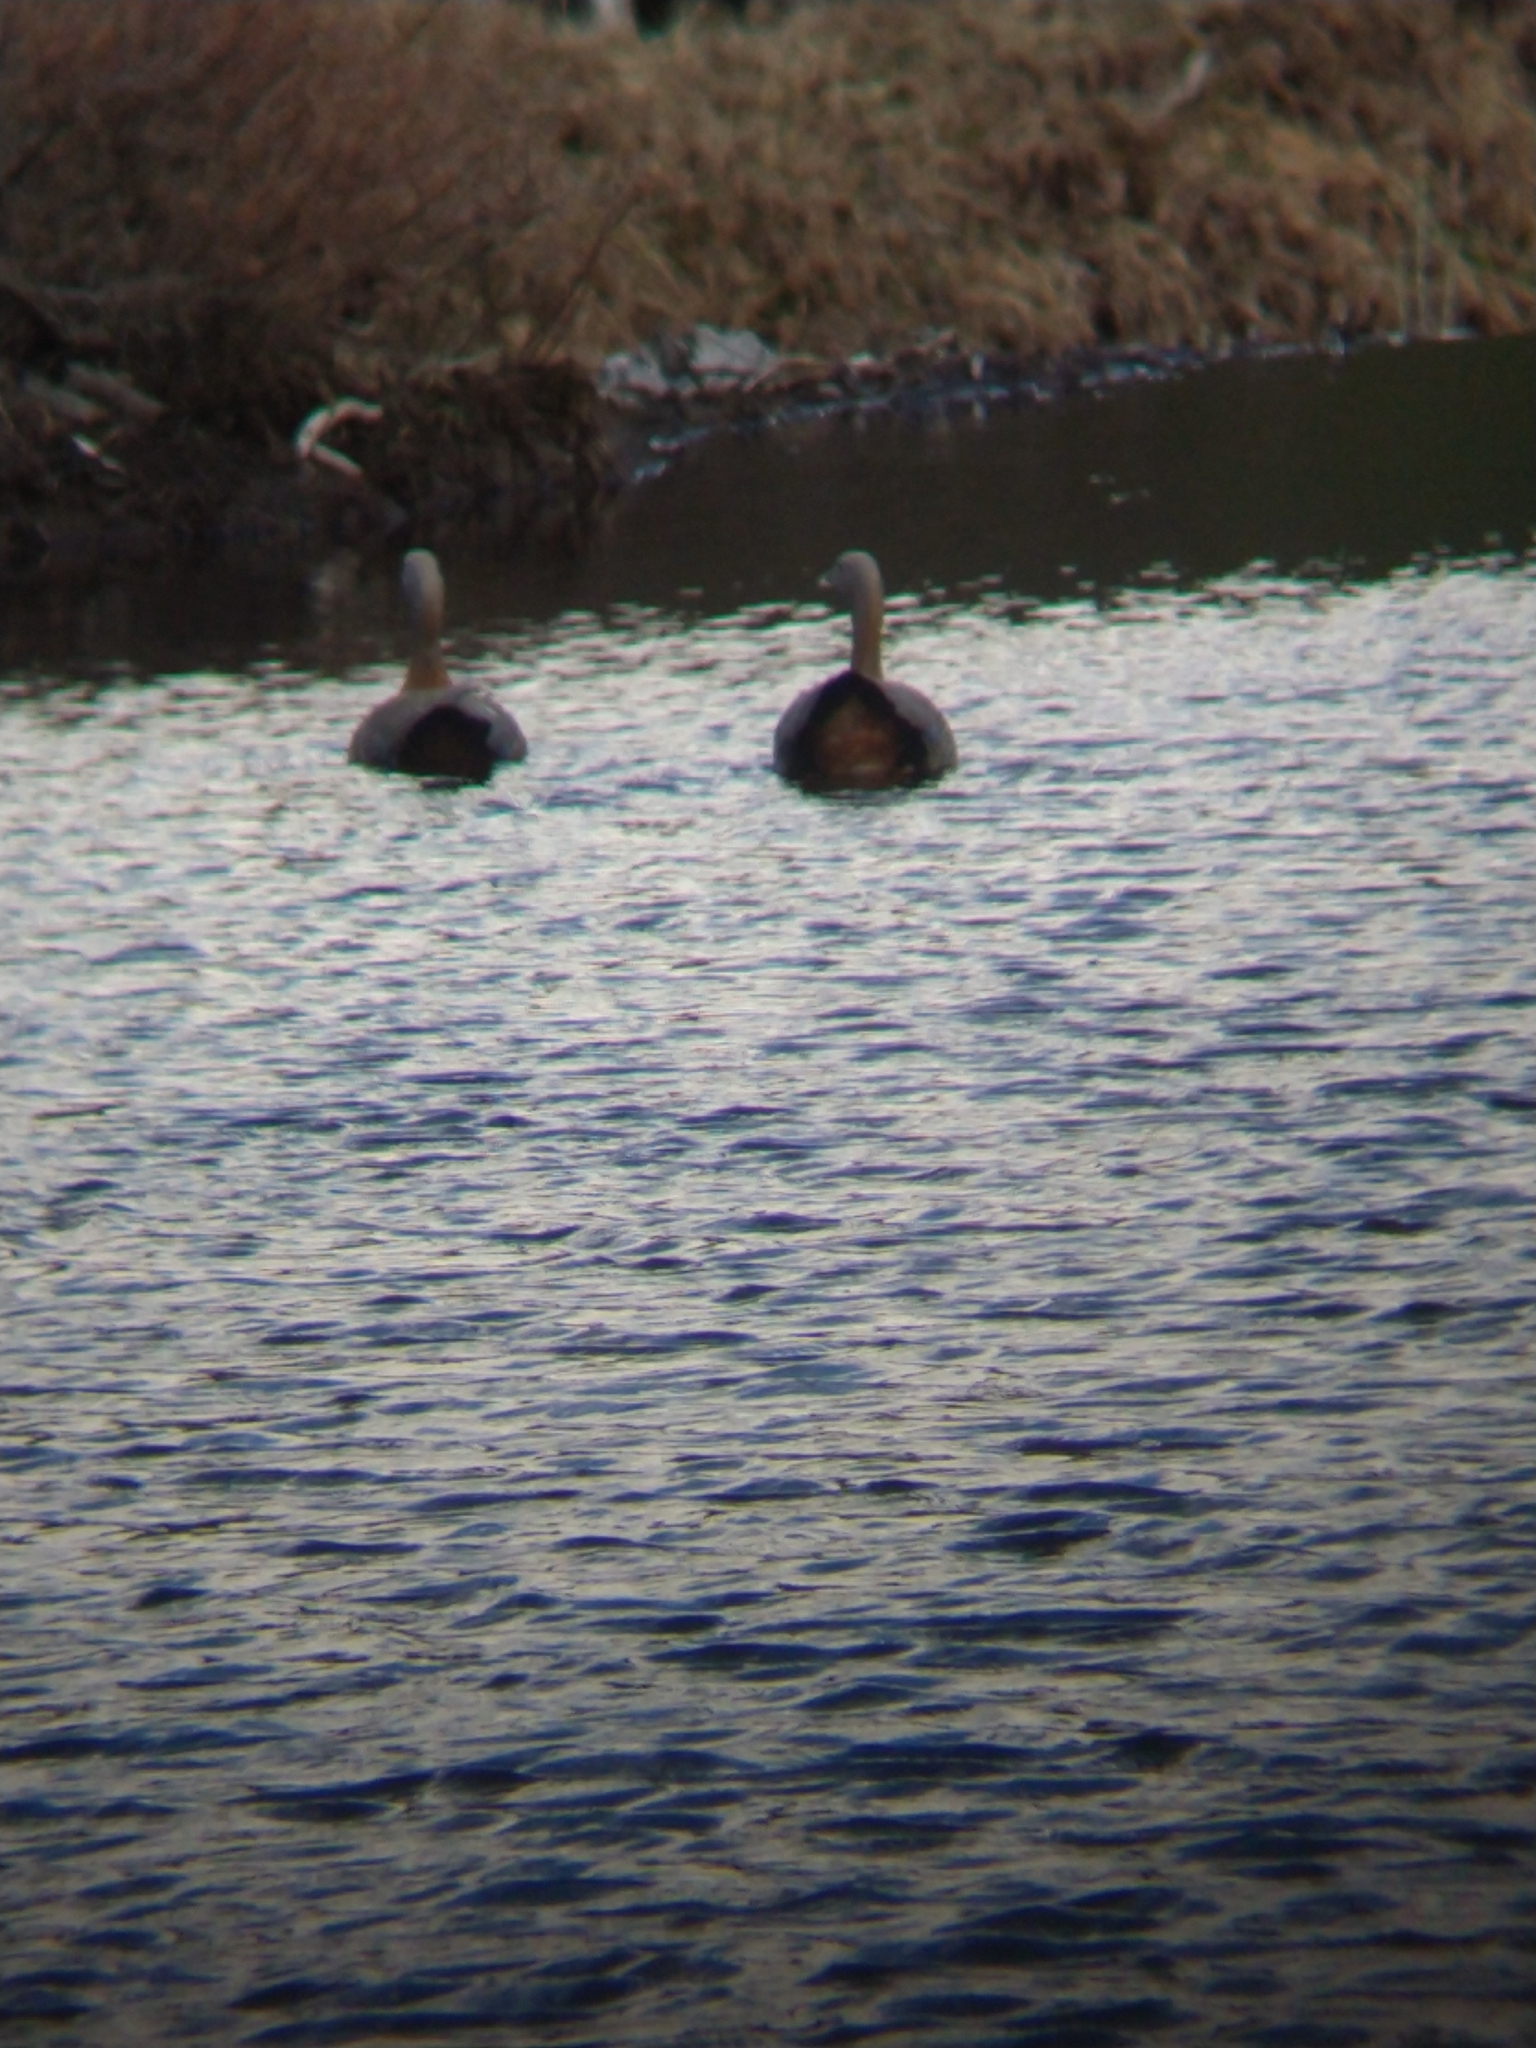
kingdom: Animalia
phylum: Chordata
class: Aves
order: Anseriformes
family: Anatidae
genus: Chloephaga
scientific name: Chloephaga poliocephala
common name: Ashy-headed goose
